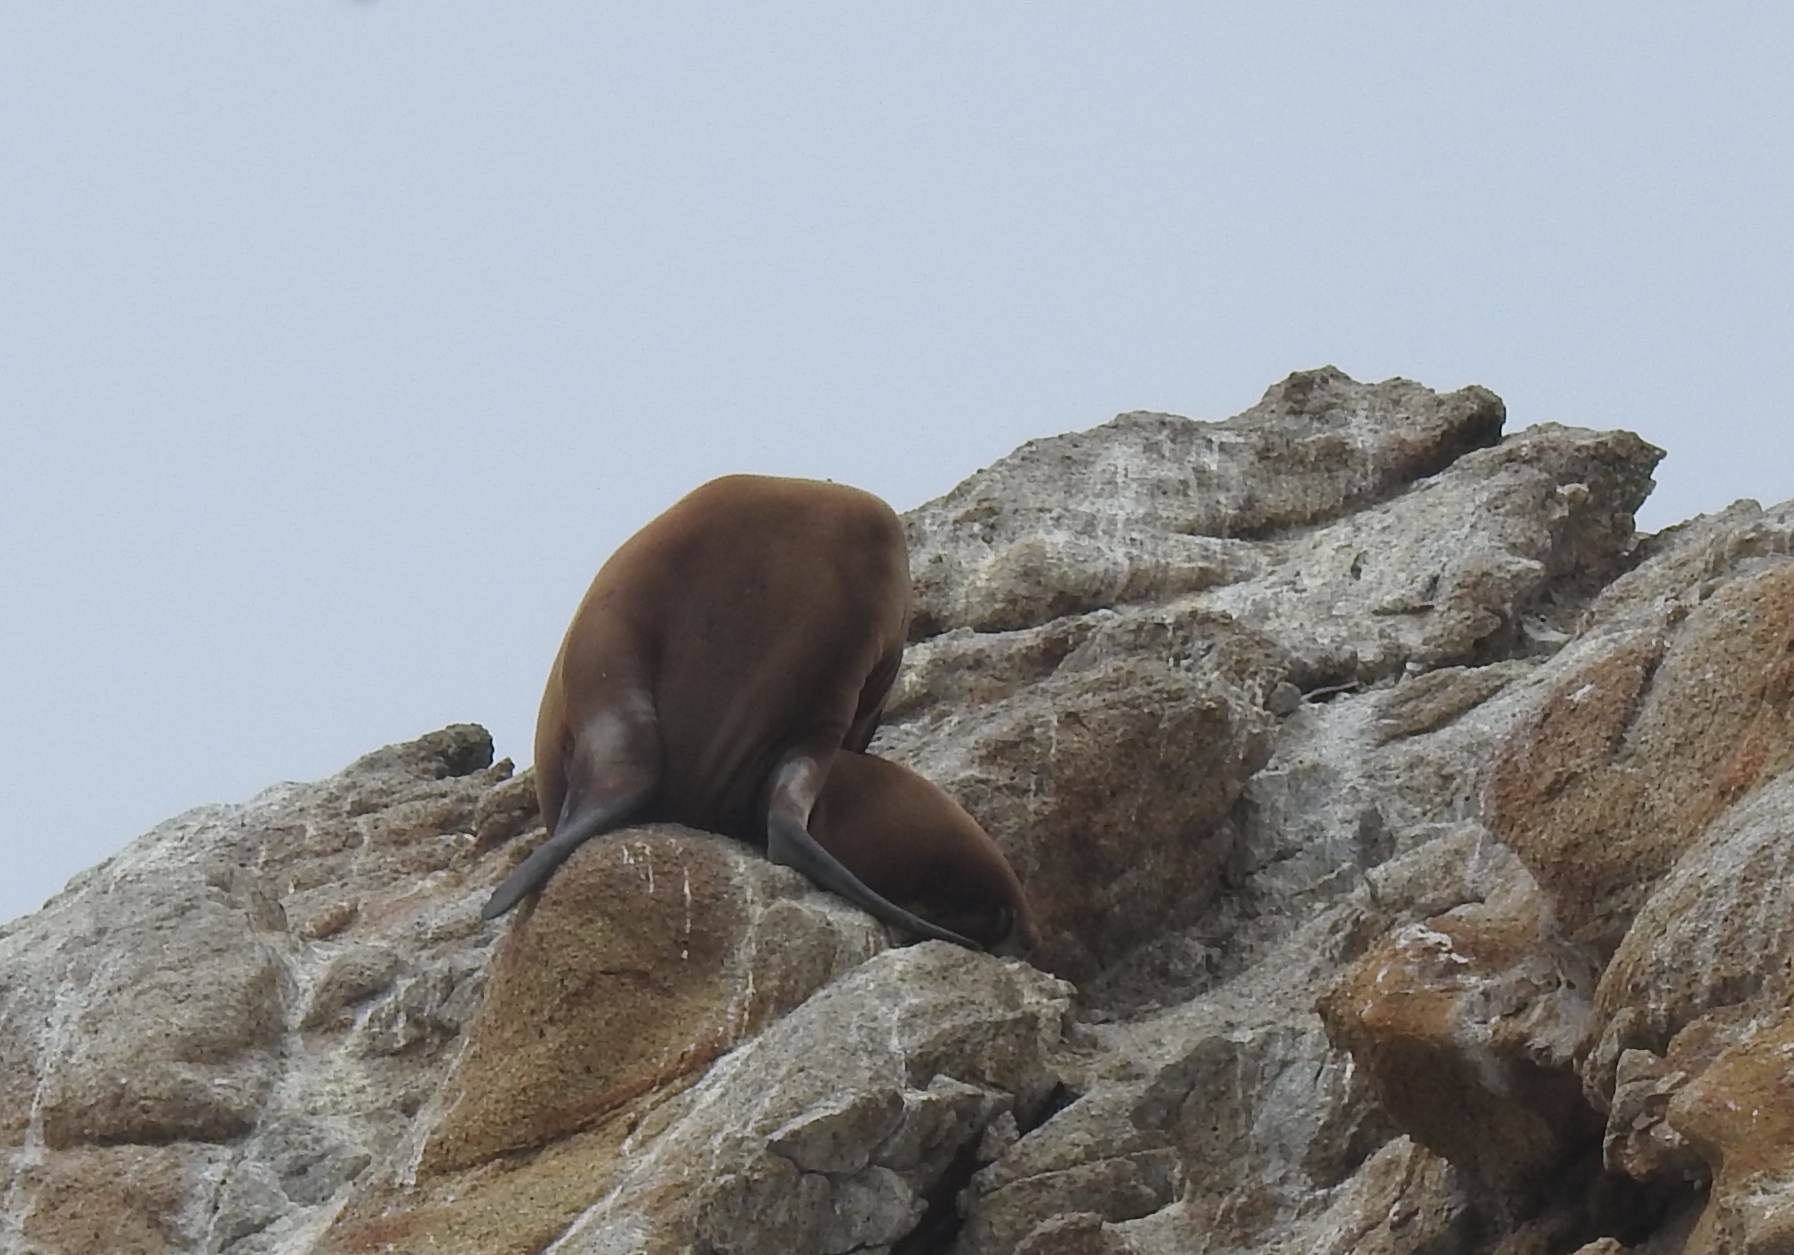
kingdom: Animalia
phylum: Chordata
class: Mammalia
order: Carnivora
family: Otariidae
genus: Zalophus
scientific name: Zalophus californianus
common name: California sea lion
